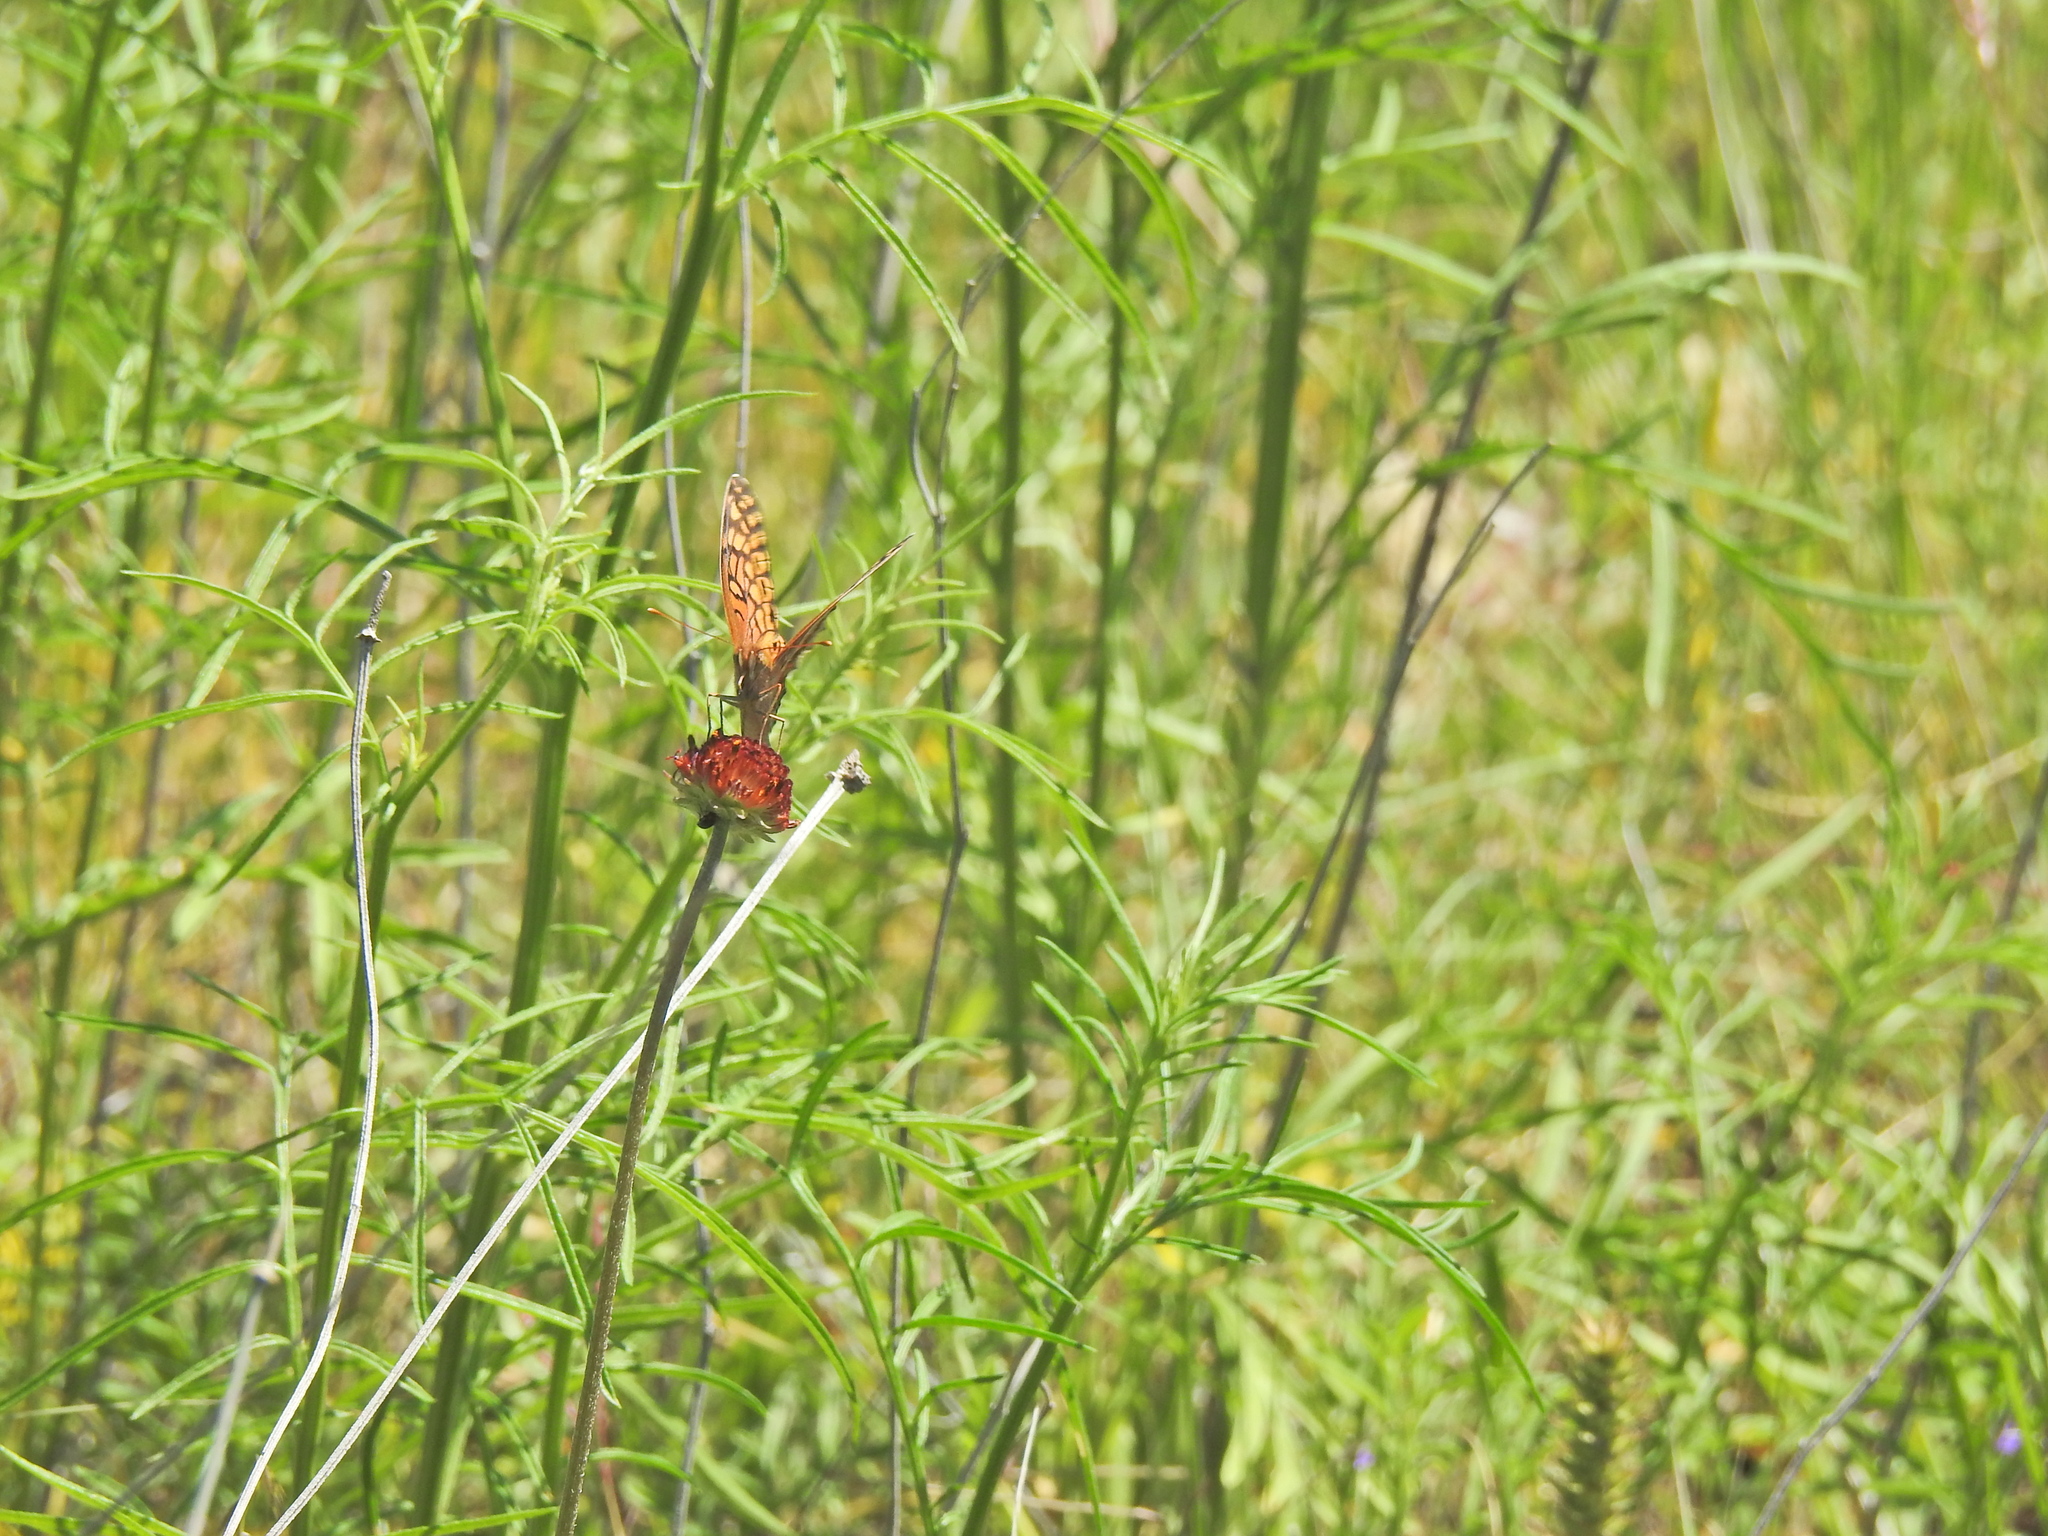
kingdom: Animalia
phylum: Arthropoda
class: Insecta
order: Lepidoptera
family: Nymphalidae
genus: Euptoieta
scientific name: Euptoieta claudia
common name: Variegated fritillary
